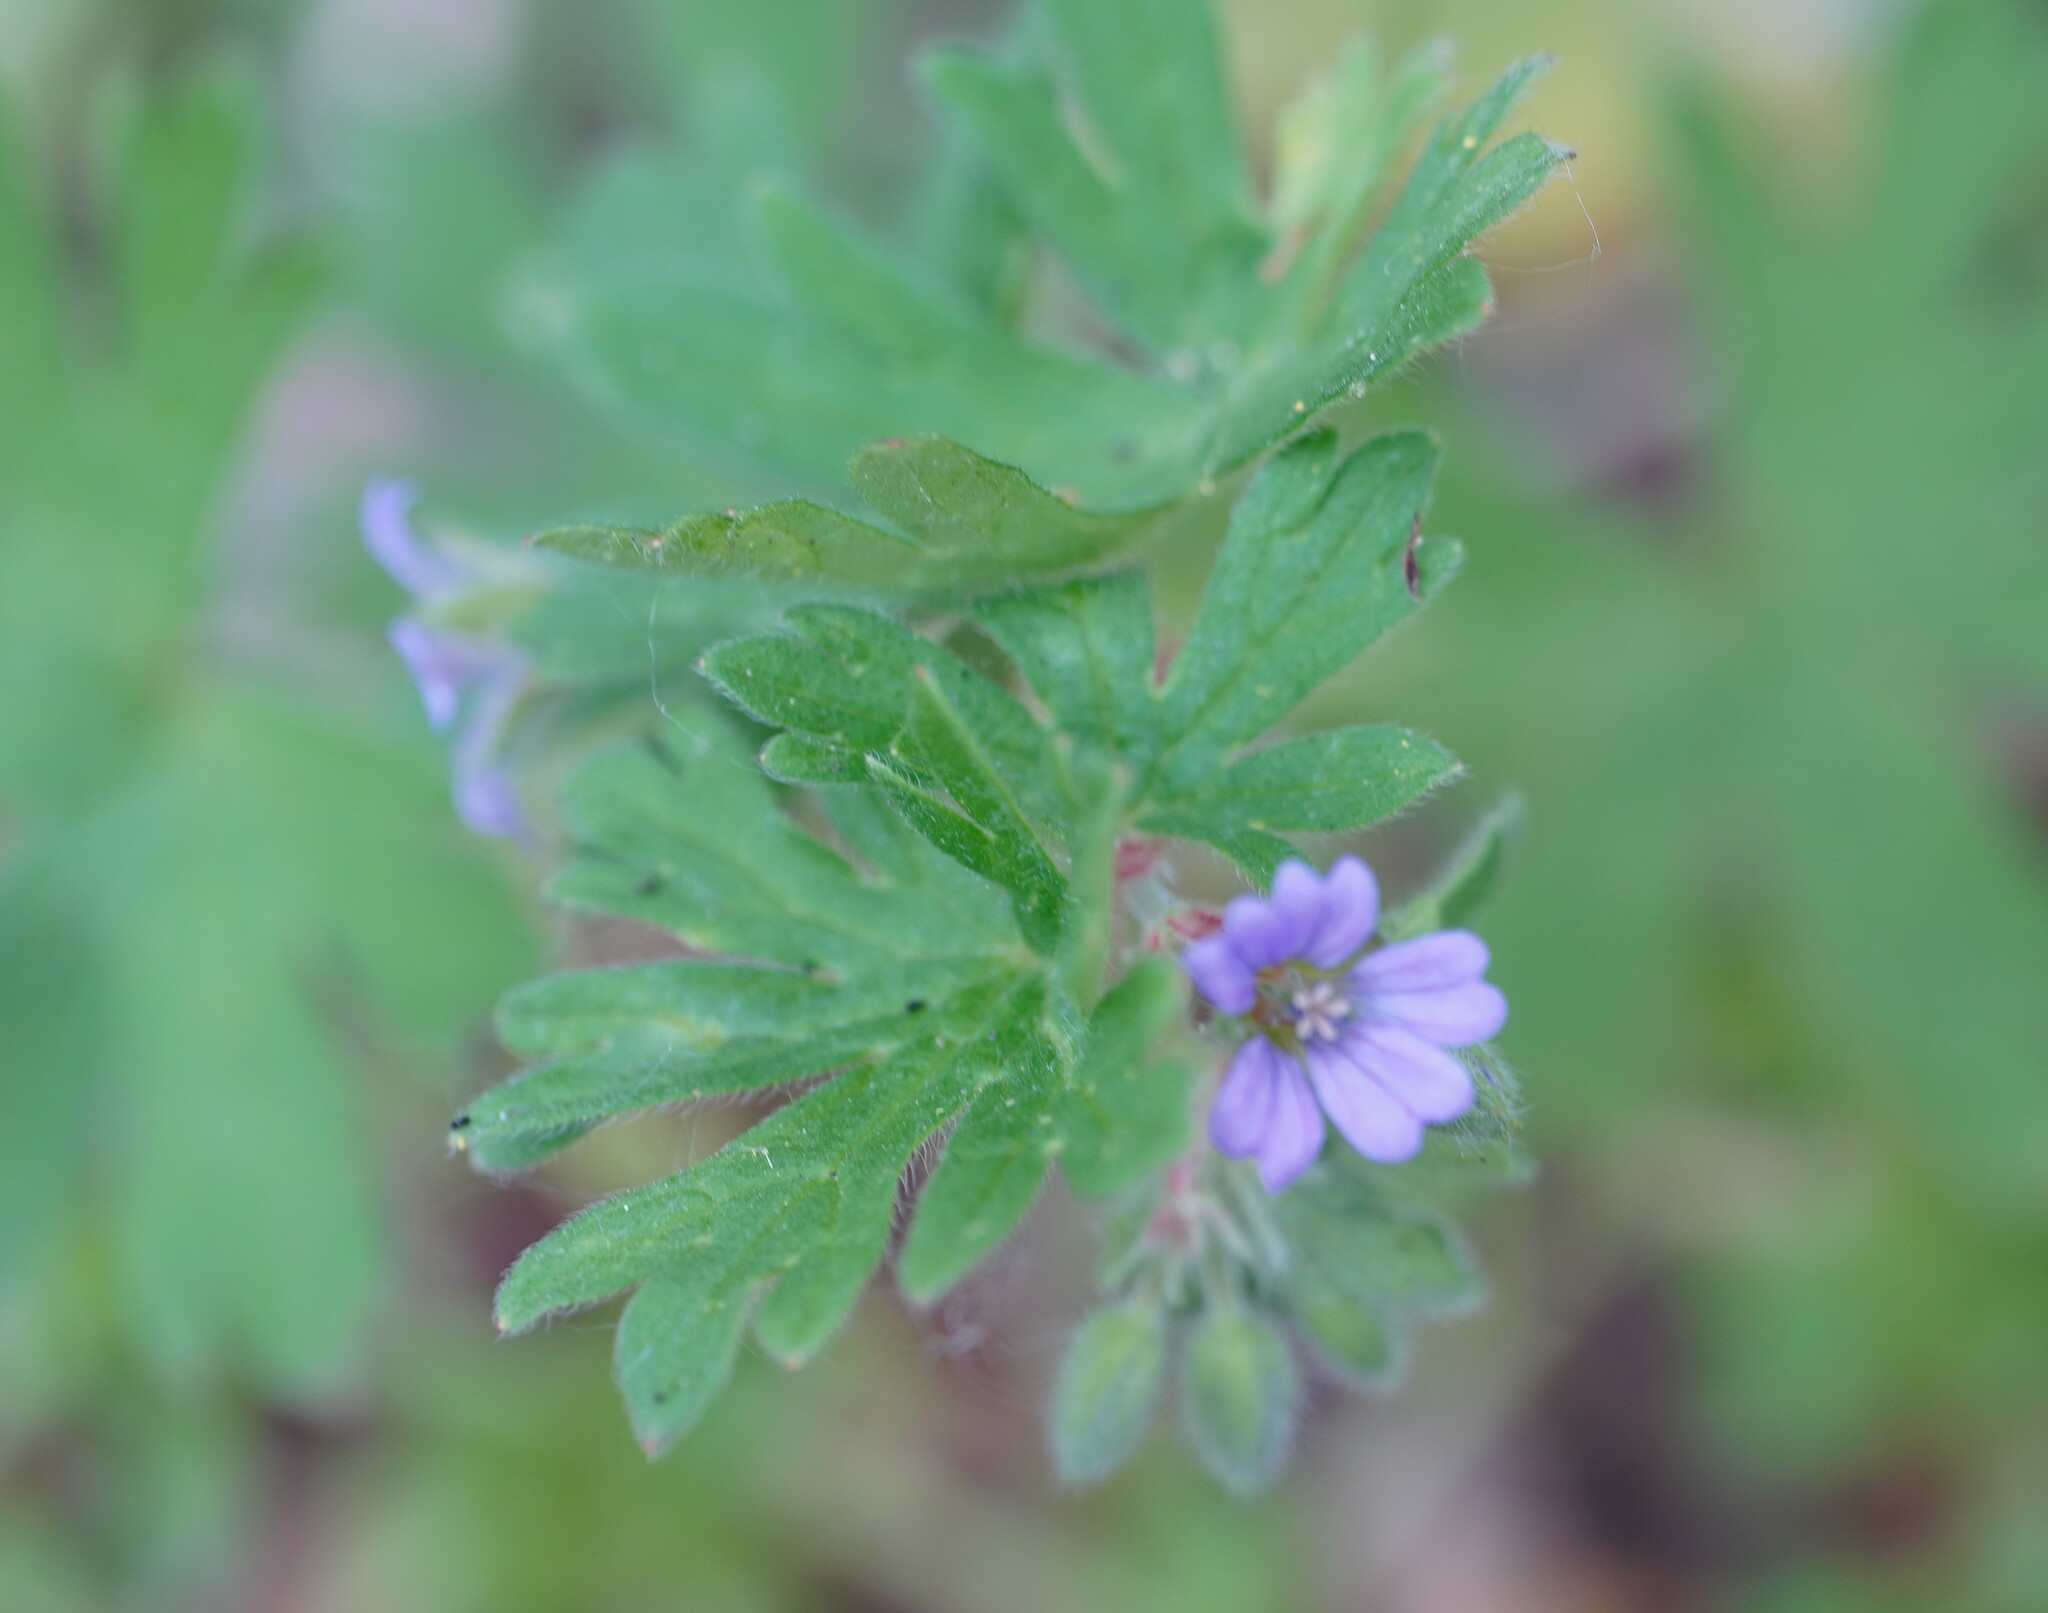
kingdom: Plantae
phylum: Tracheophyta
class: Magnoliopsida
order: Geraniales
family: Geraniaceae
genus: Geranium
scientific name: Geranium pusillum
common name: Small geranium
